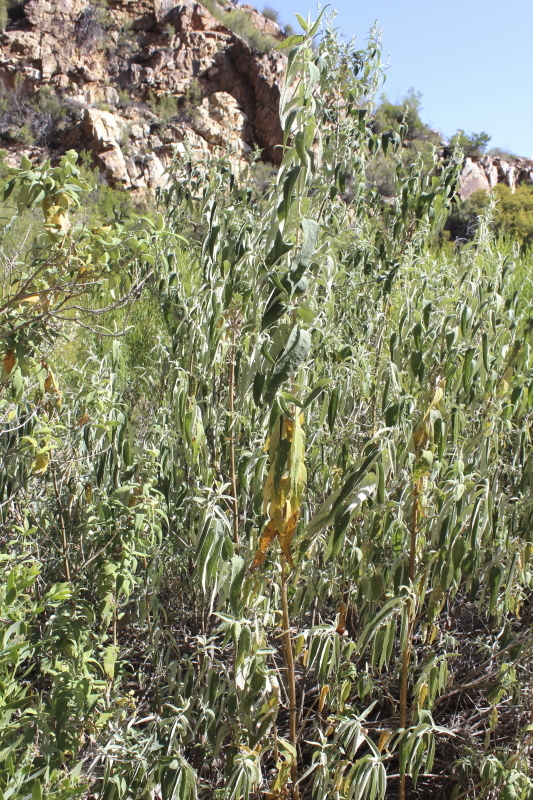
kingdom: Plantae
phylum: Tracheophyta
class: Magnoliopsida
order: Lamiales
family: Scrophulariaceae
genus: Buddleja
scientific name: Buddleja salviifolia
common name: Sagewood
